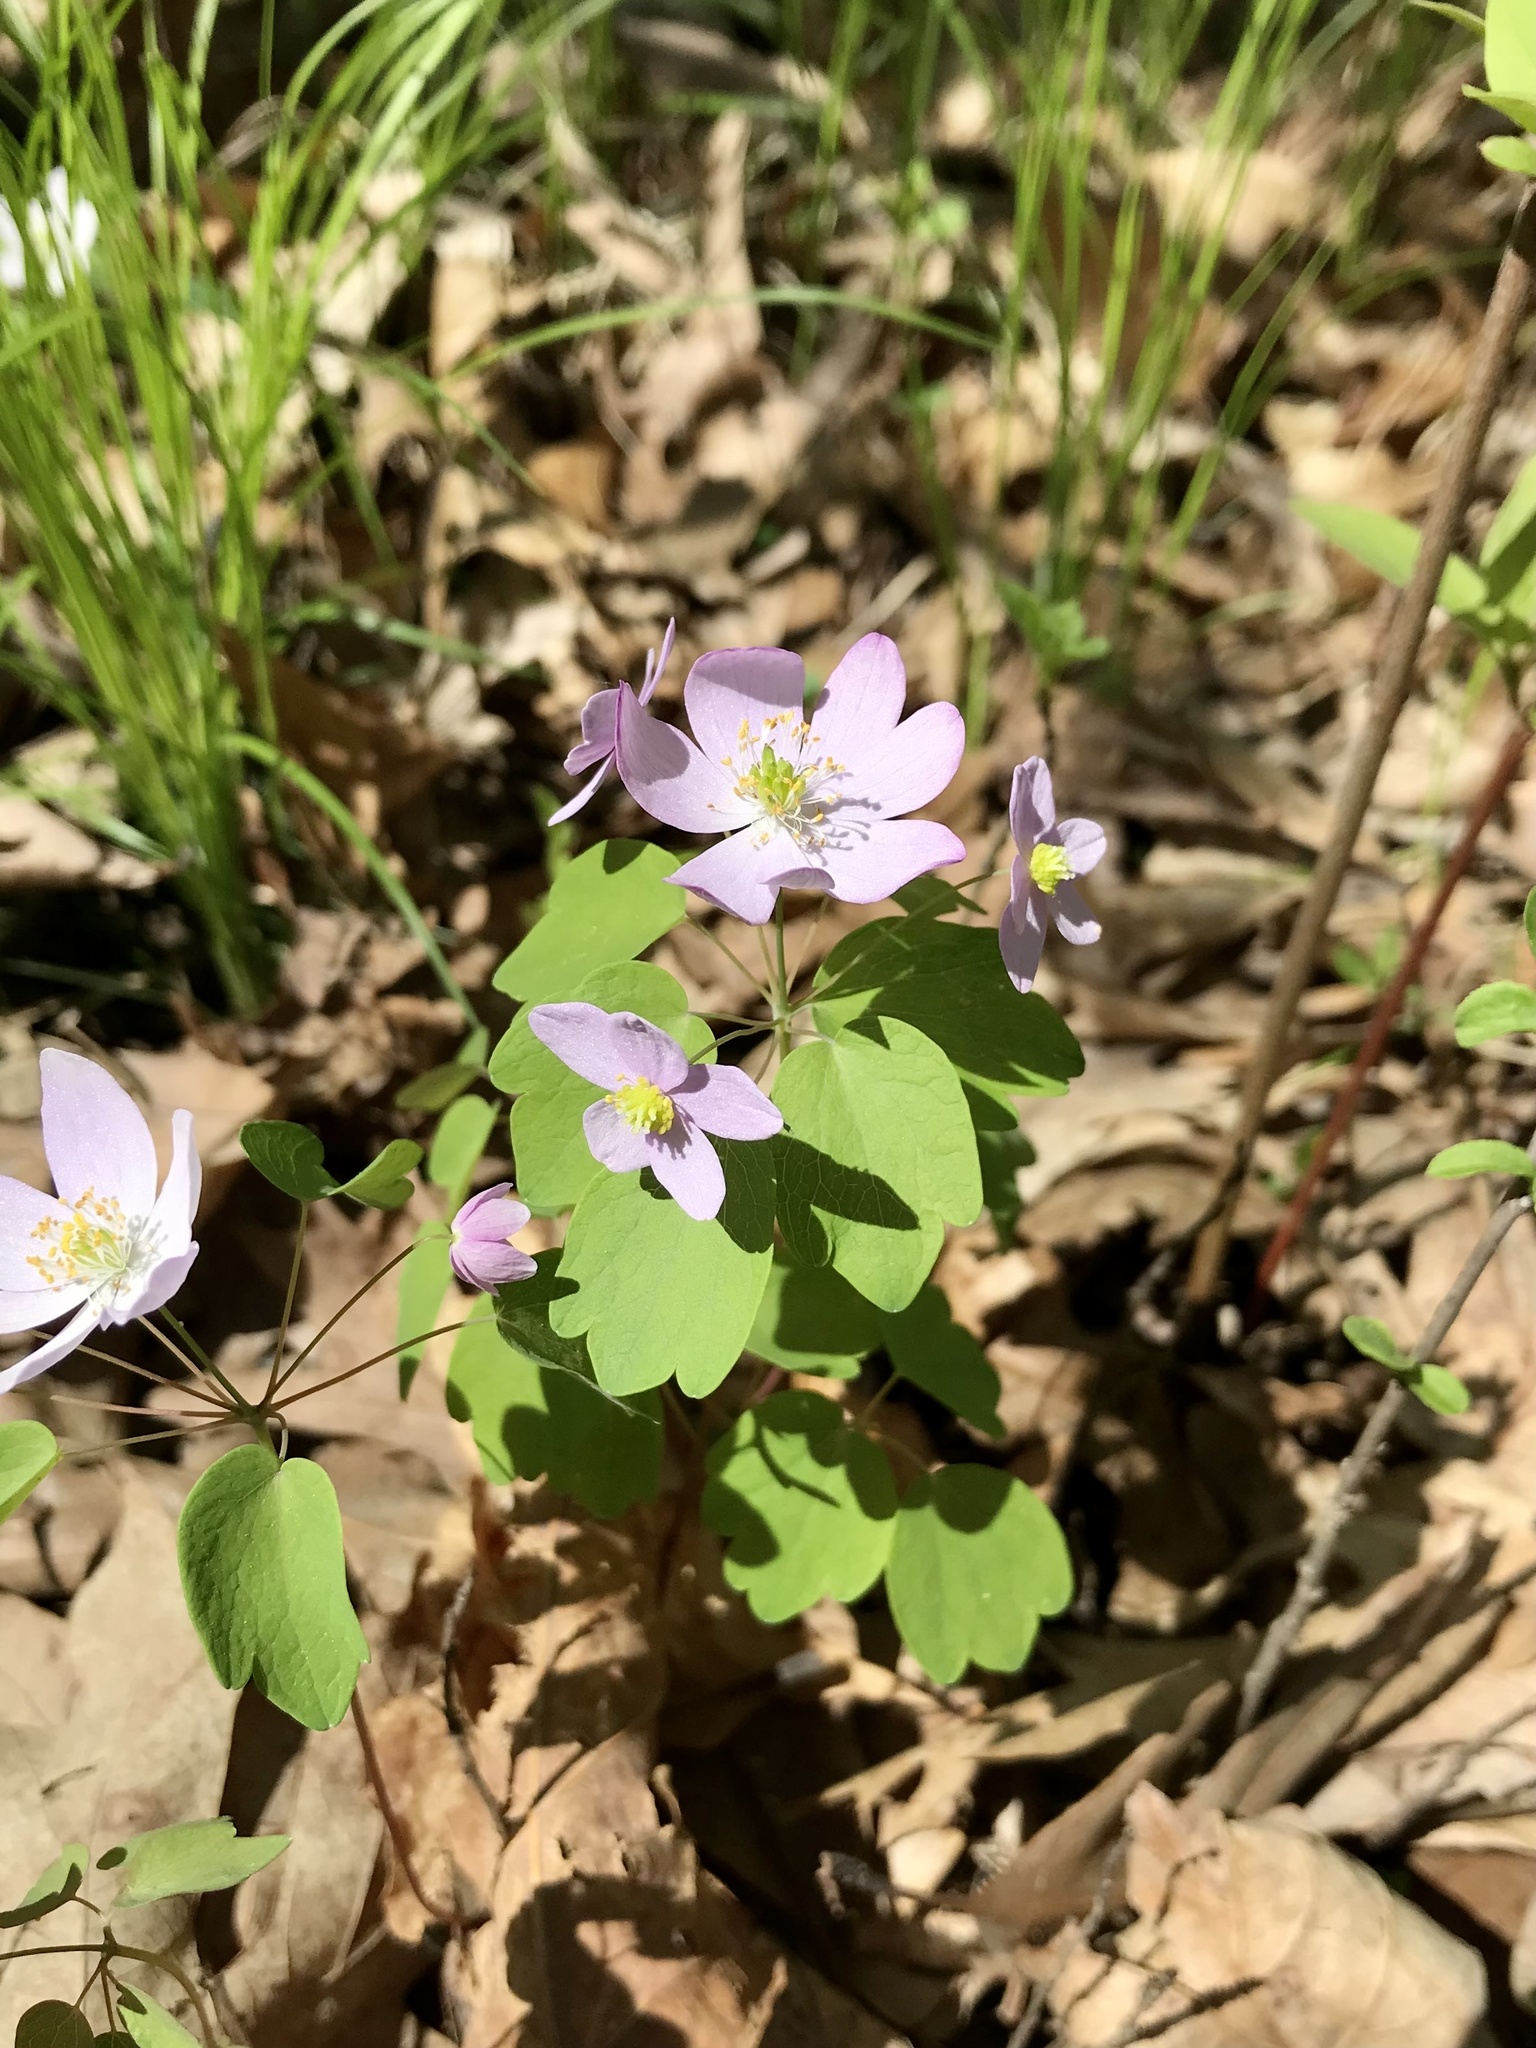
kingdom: Plantae
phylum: Tracheophyta
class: Magnoliopsida
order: Ranunculales
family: Ranunculaceae
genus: Thalictrum
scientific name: Thalictrum thalictroides
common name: Rue-anemone
